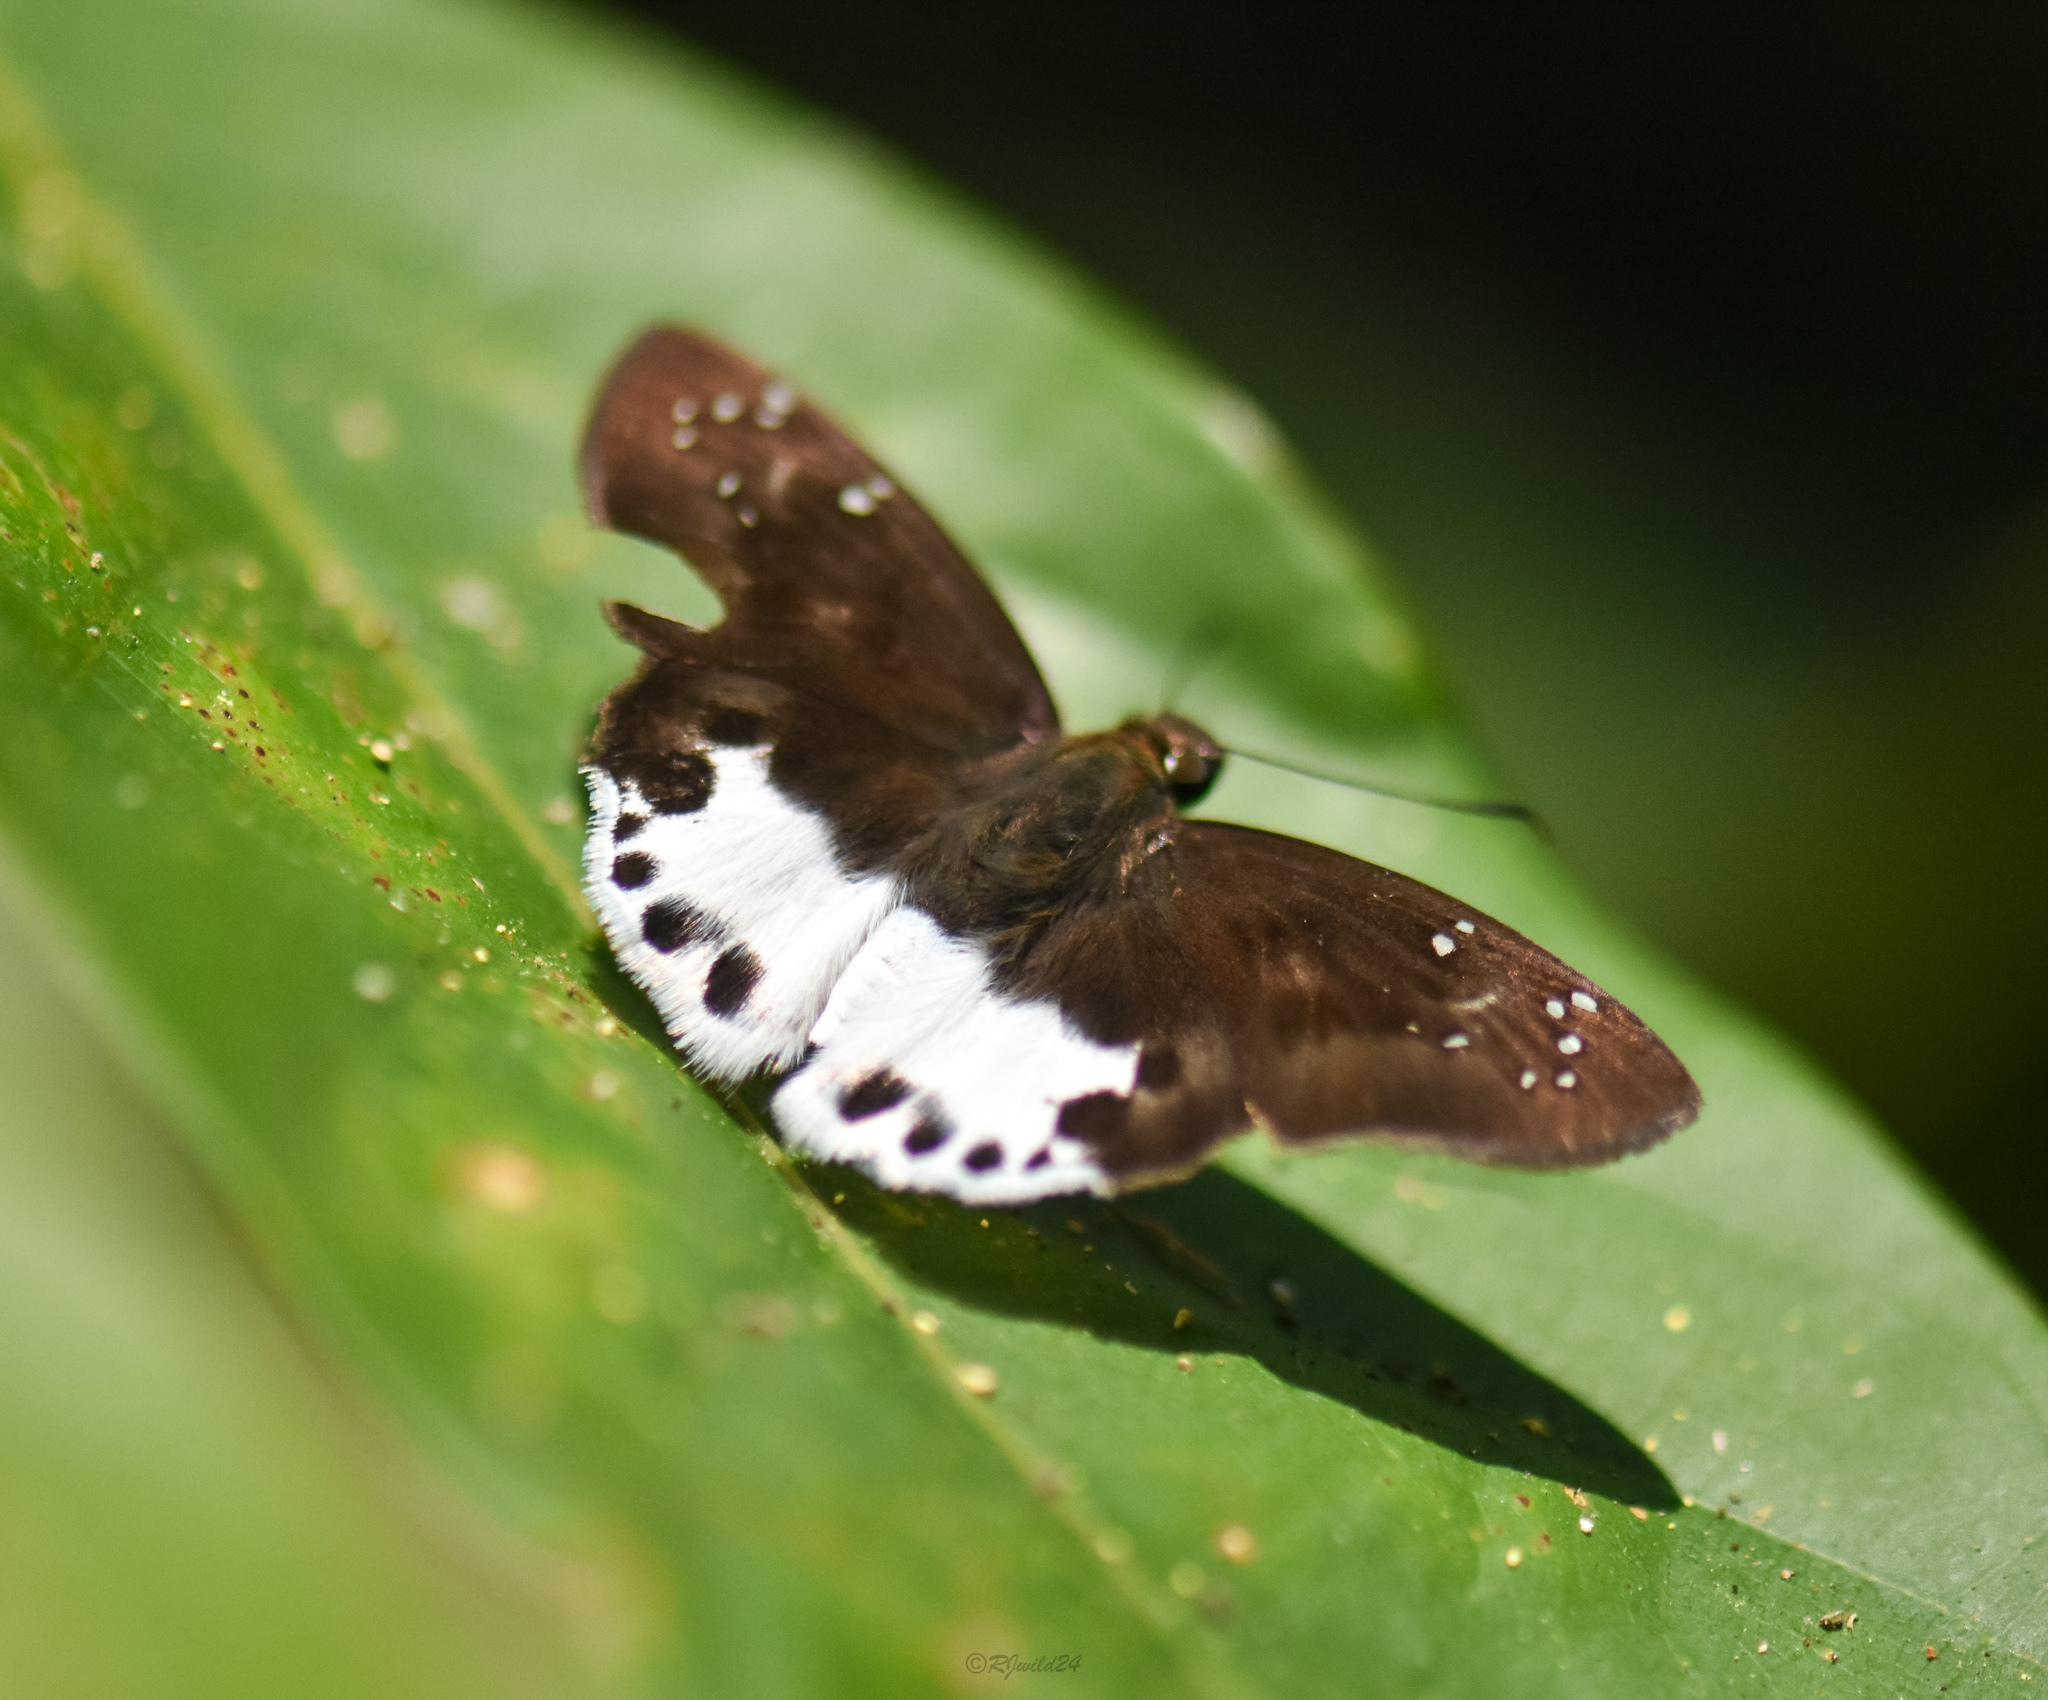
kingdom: Animalia
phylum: Arthropoda
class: Insecta
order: Lepidoptera
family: Hesperiidae
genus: Tagiades
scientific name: Tagiades litigiosa
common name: Water snow flat
